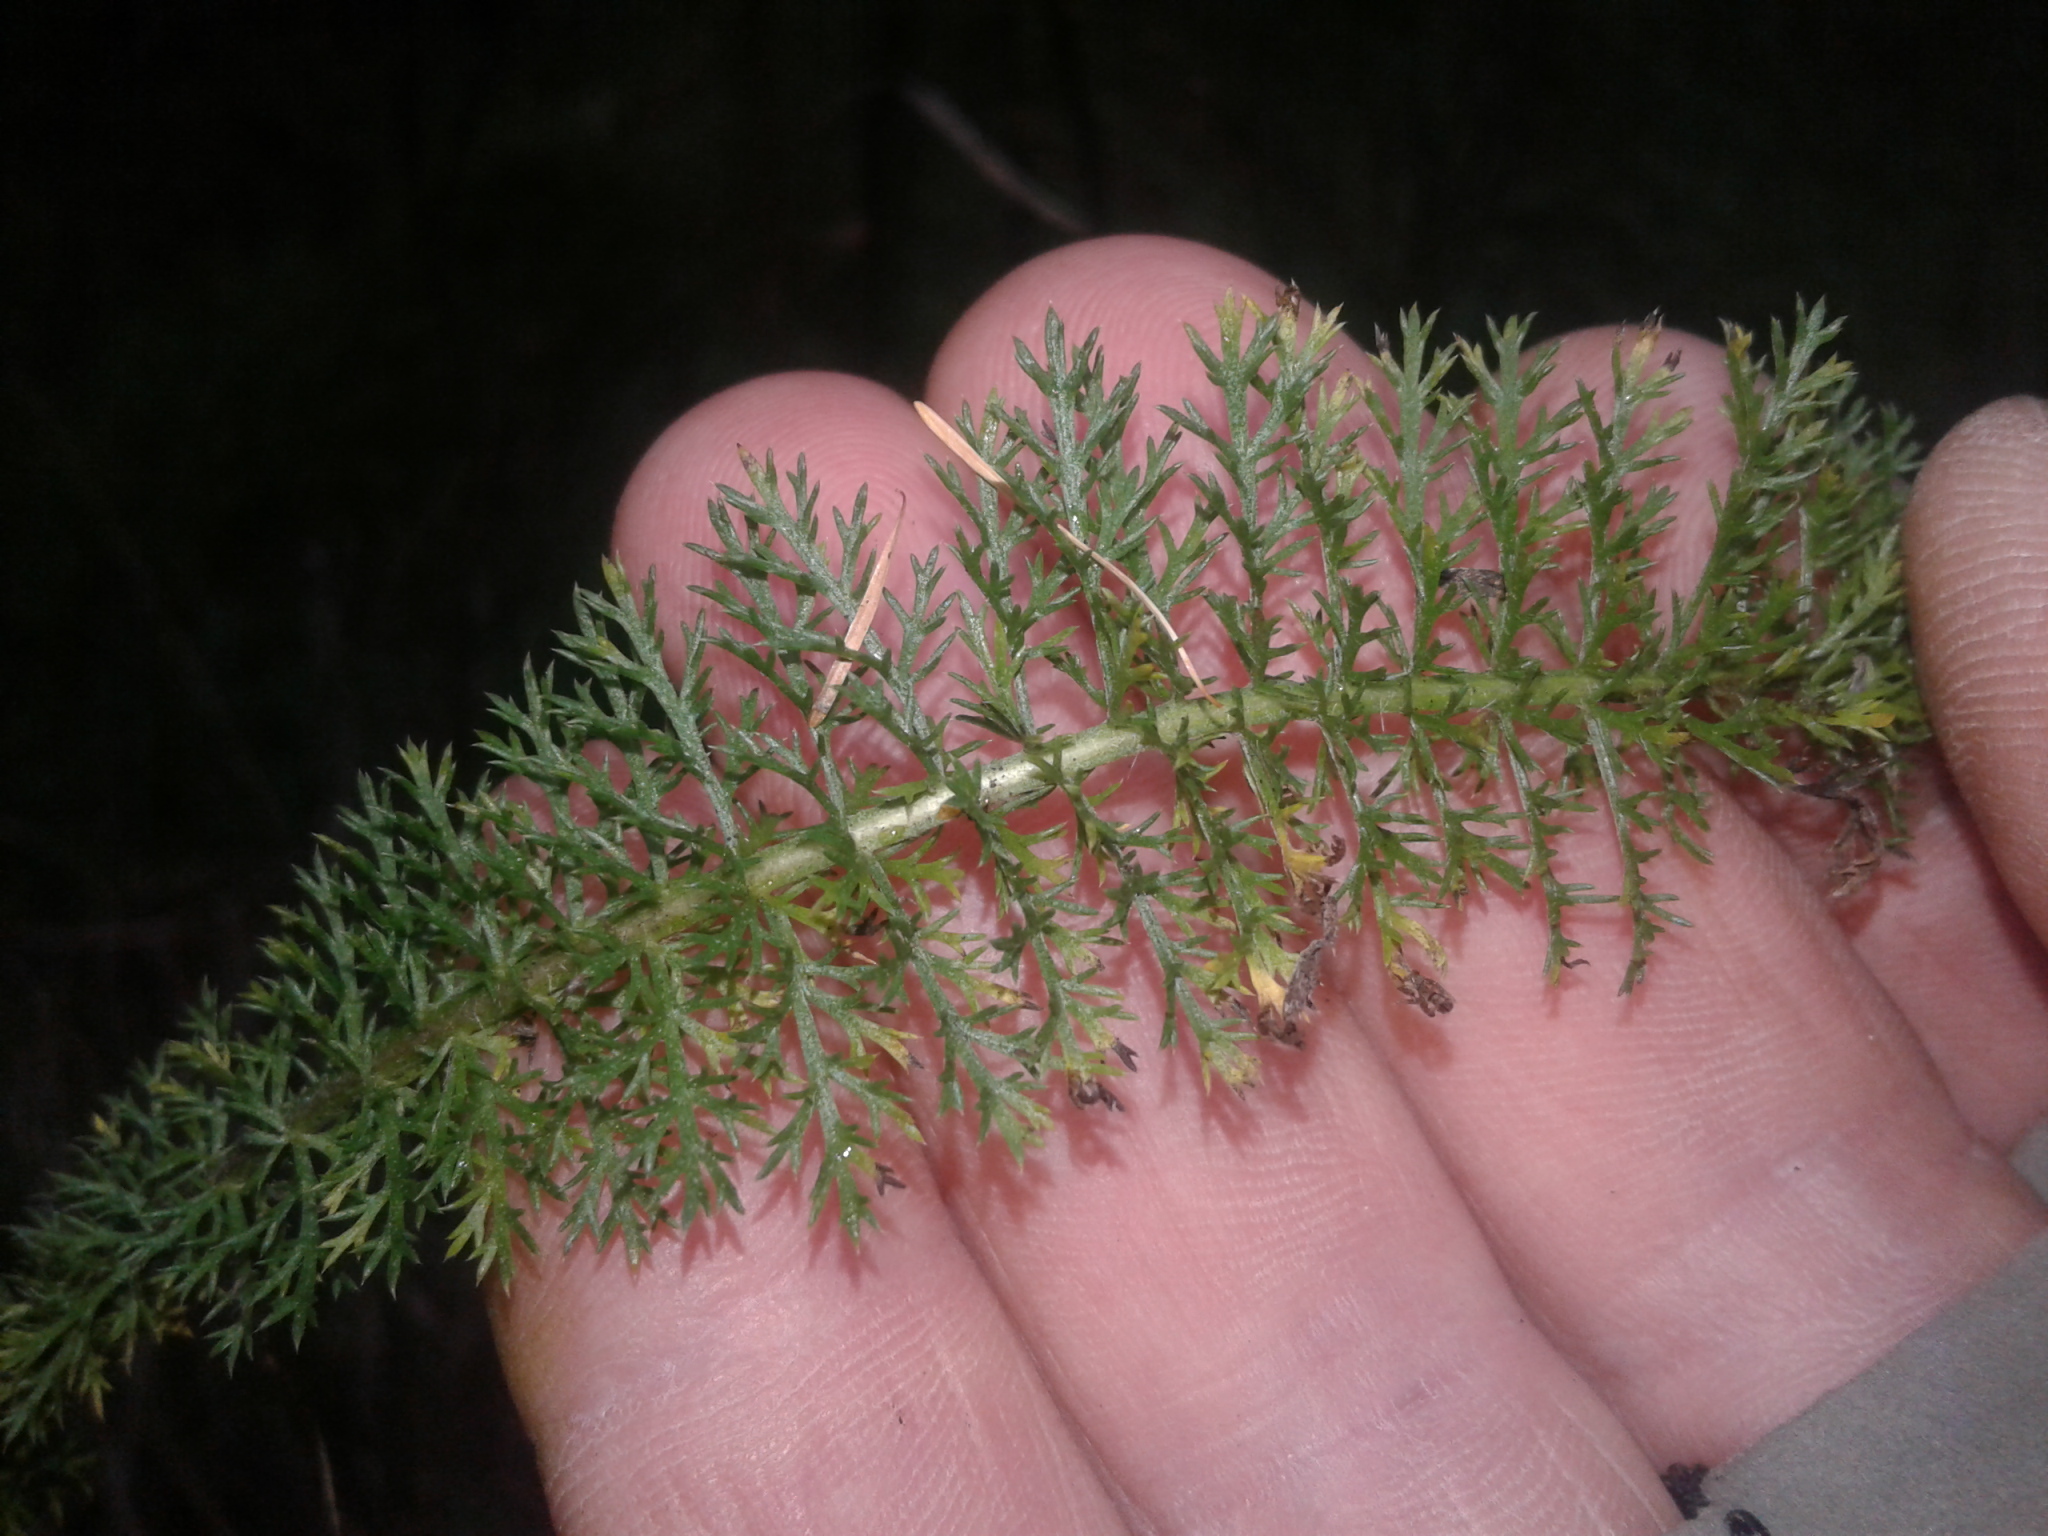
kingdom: Plantae
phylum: Tracheophyta
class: Magnoliopsida
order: Asterales
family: Asteraceae
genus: Achillea
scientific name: Achillea millefolium
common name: Yarrow
